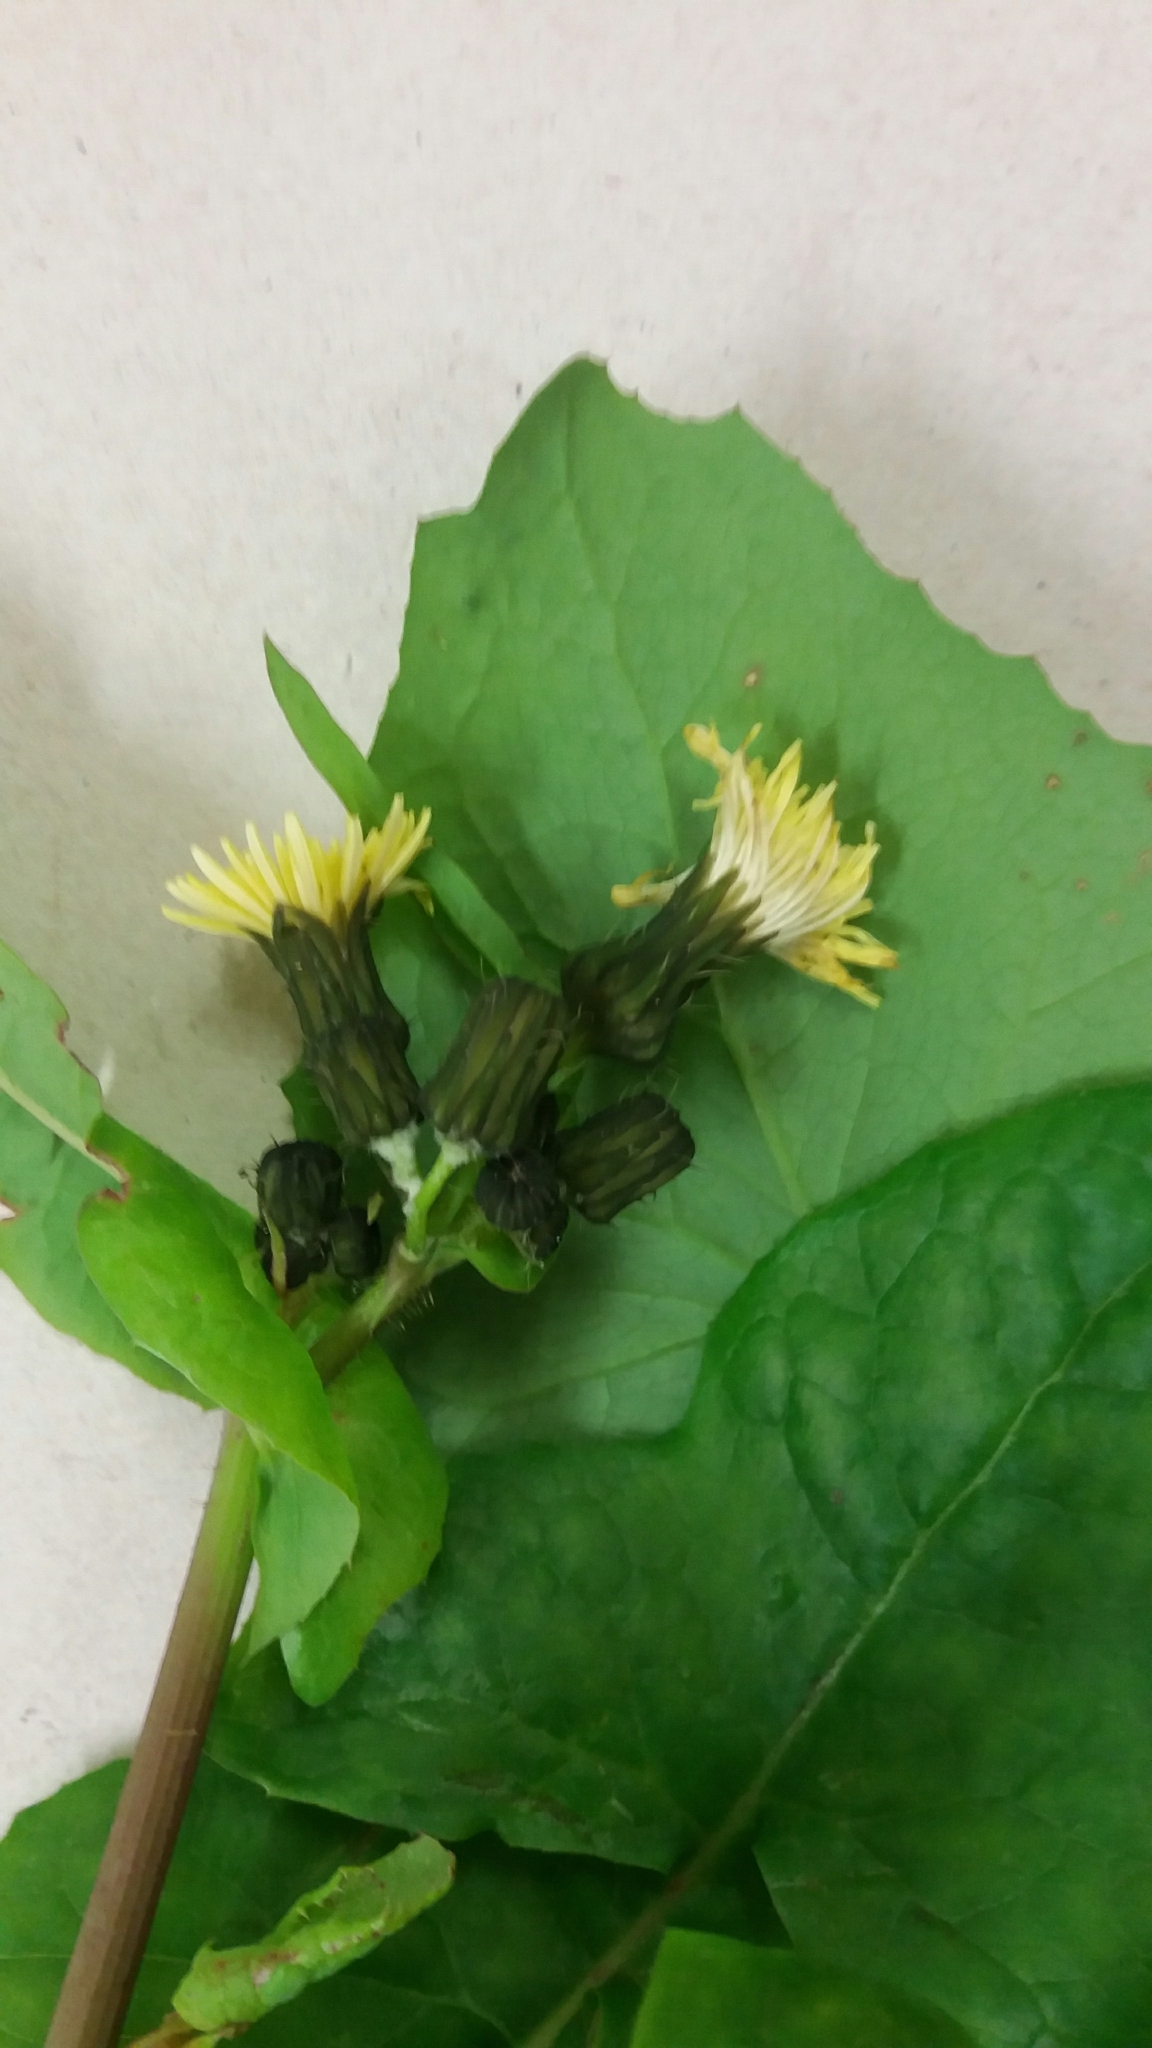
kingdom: Plantae
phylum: Tracheophyta
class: Magnoliopsida
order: Asterales
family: Asteraceae
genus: Sonchus
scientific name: Sonchus oleraceus
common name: Common sowthistle
